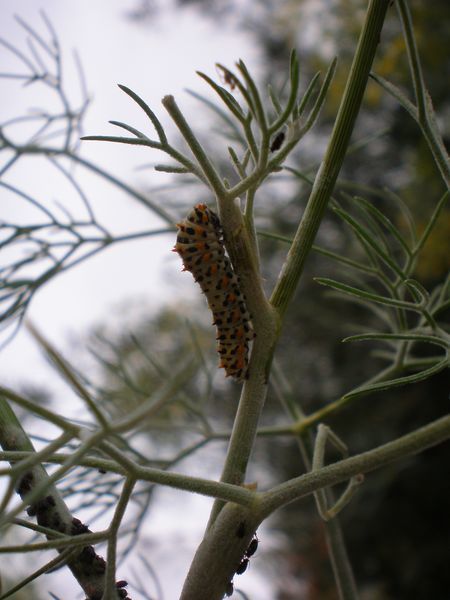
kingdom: Animalia
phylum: Arthropoda
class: Insecta
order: Lepidoptera
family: Papilionidae
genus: Papilio
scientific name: Papilio machaon
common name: Swallowtail
